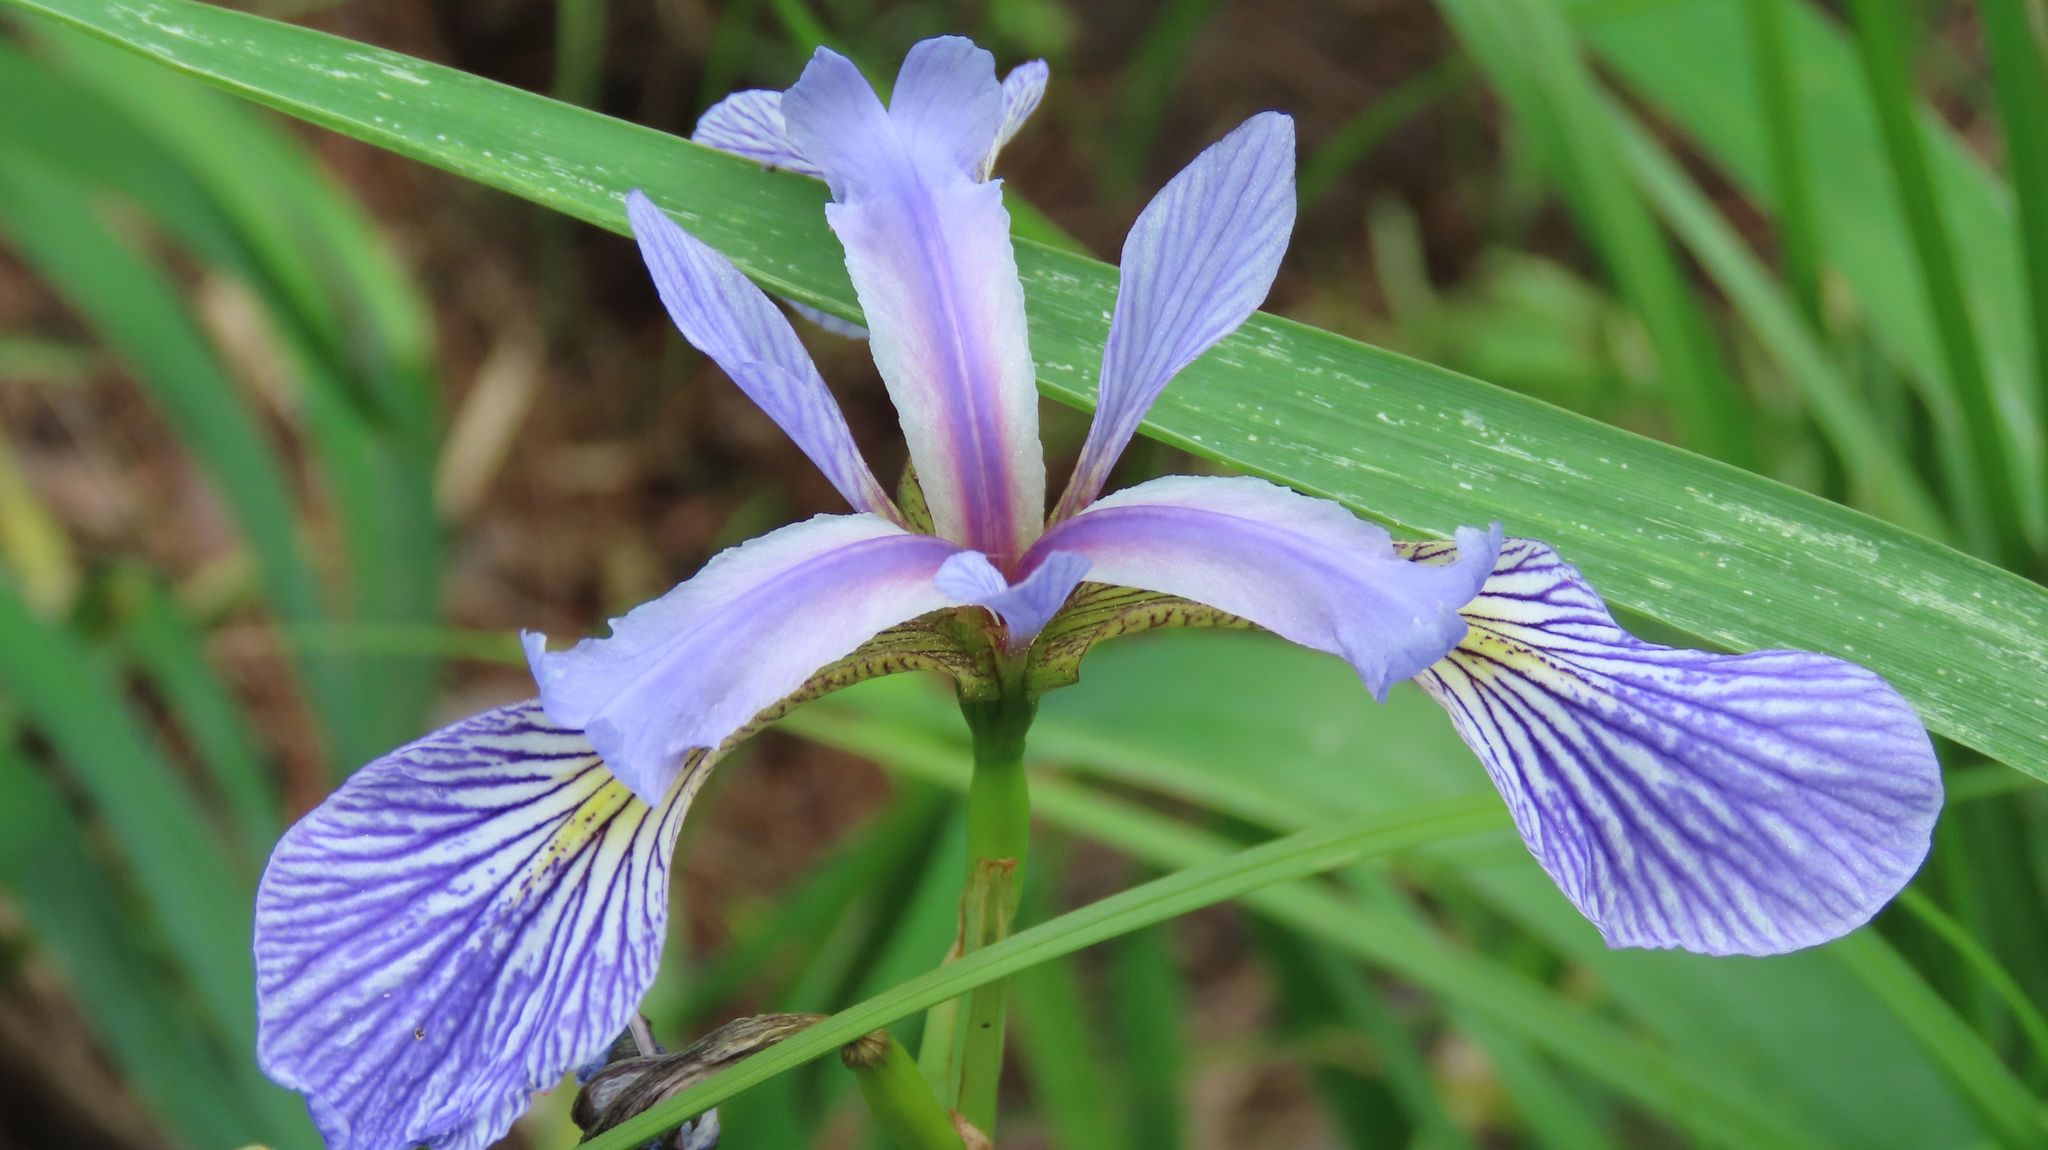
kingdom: Plantae
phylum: Tracheophyta
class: Liliopsida
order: Asparagales
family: Iridaceae
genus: Iris
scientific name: Iris versicolor
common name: Purple iris
